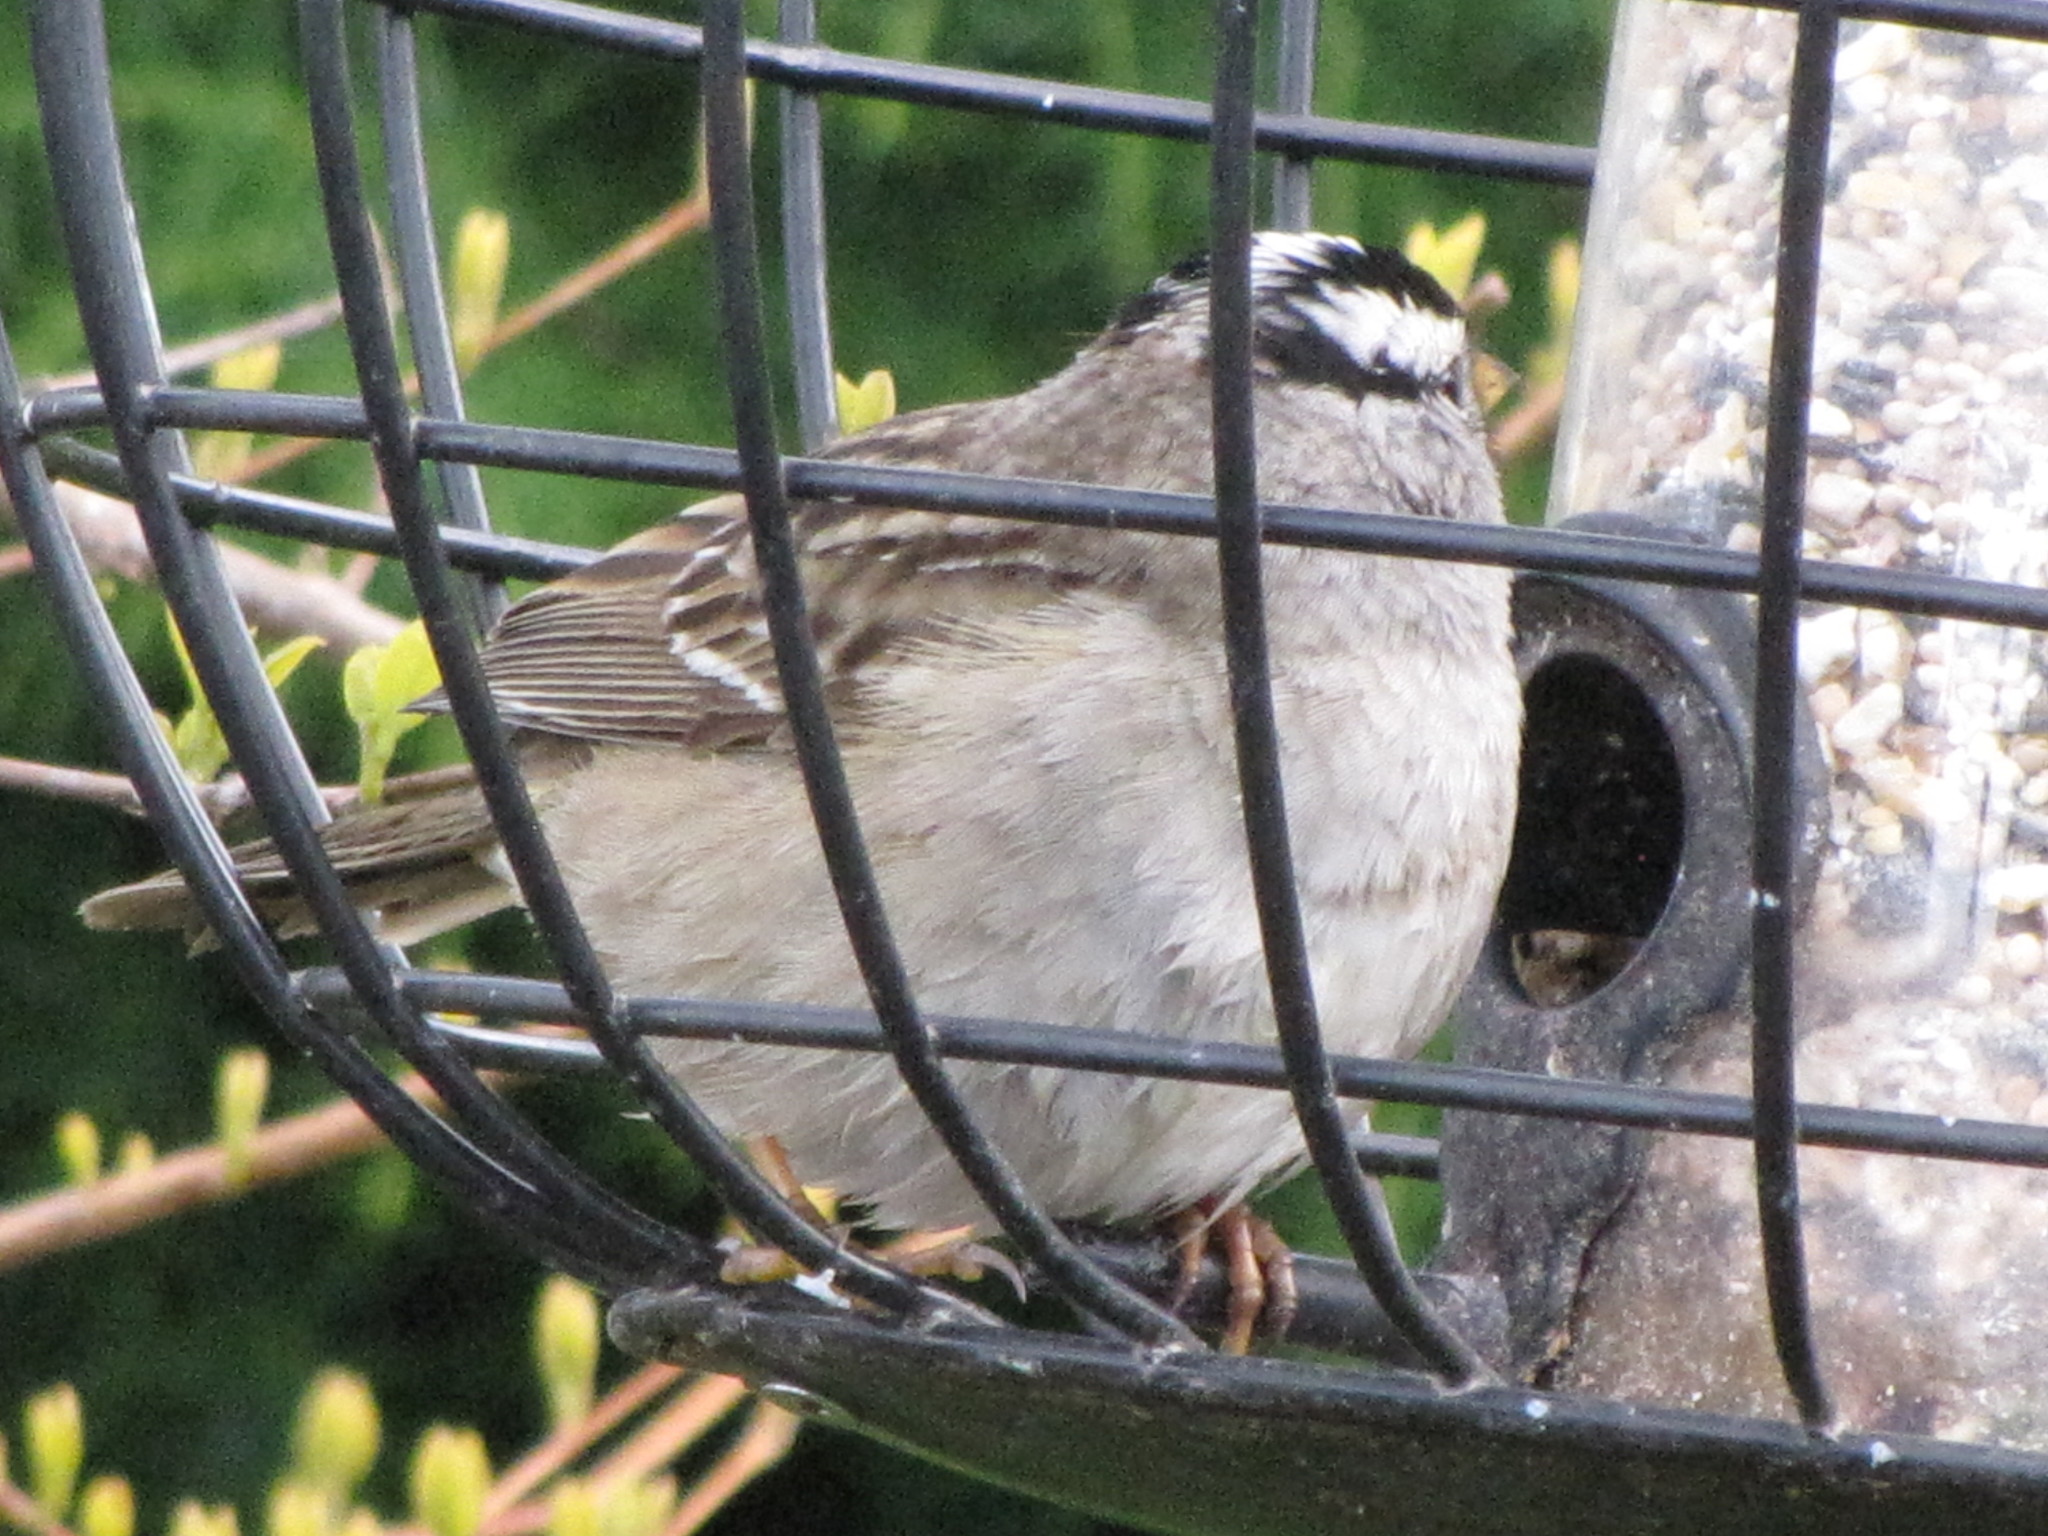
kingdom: Animalia
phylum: Chordata
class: Aves
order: Passeriformes
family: Passerellidae
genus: Zonotrichia
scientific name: Zonotrichia leucophrys
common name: White-crowned sparrow
